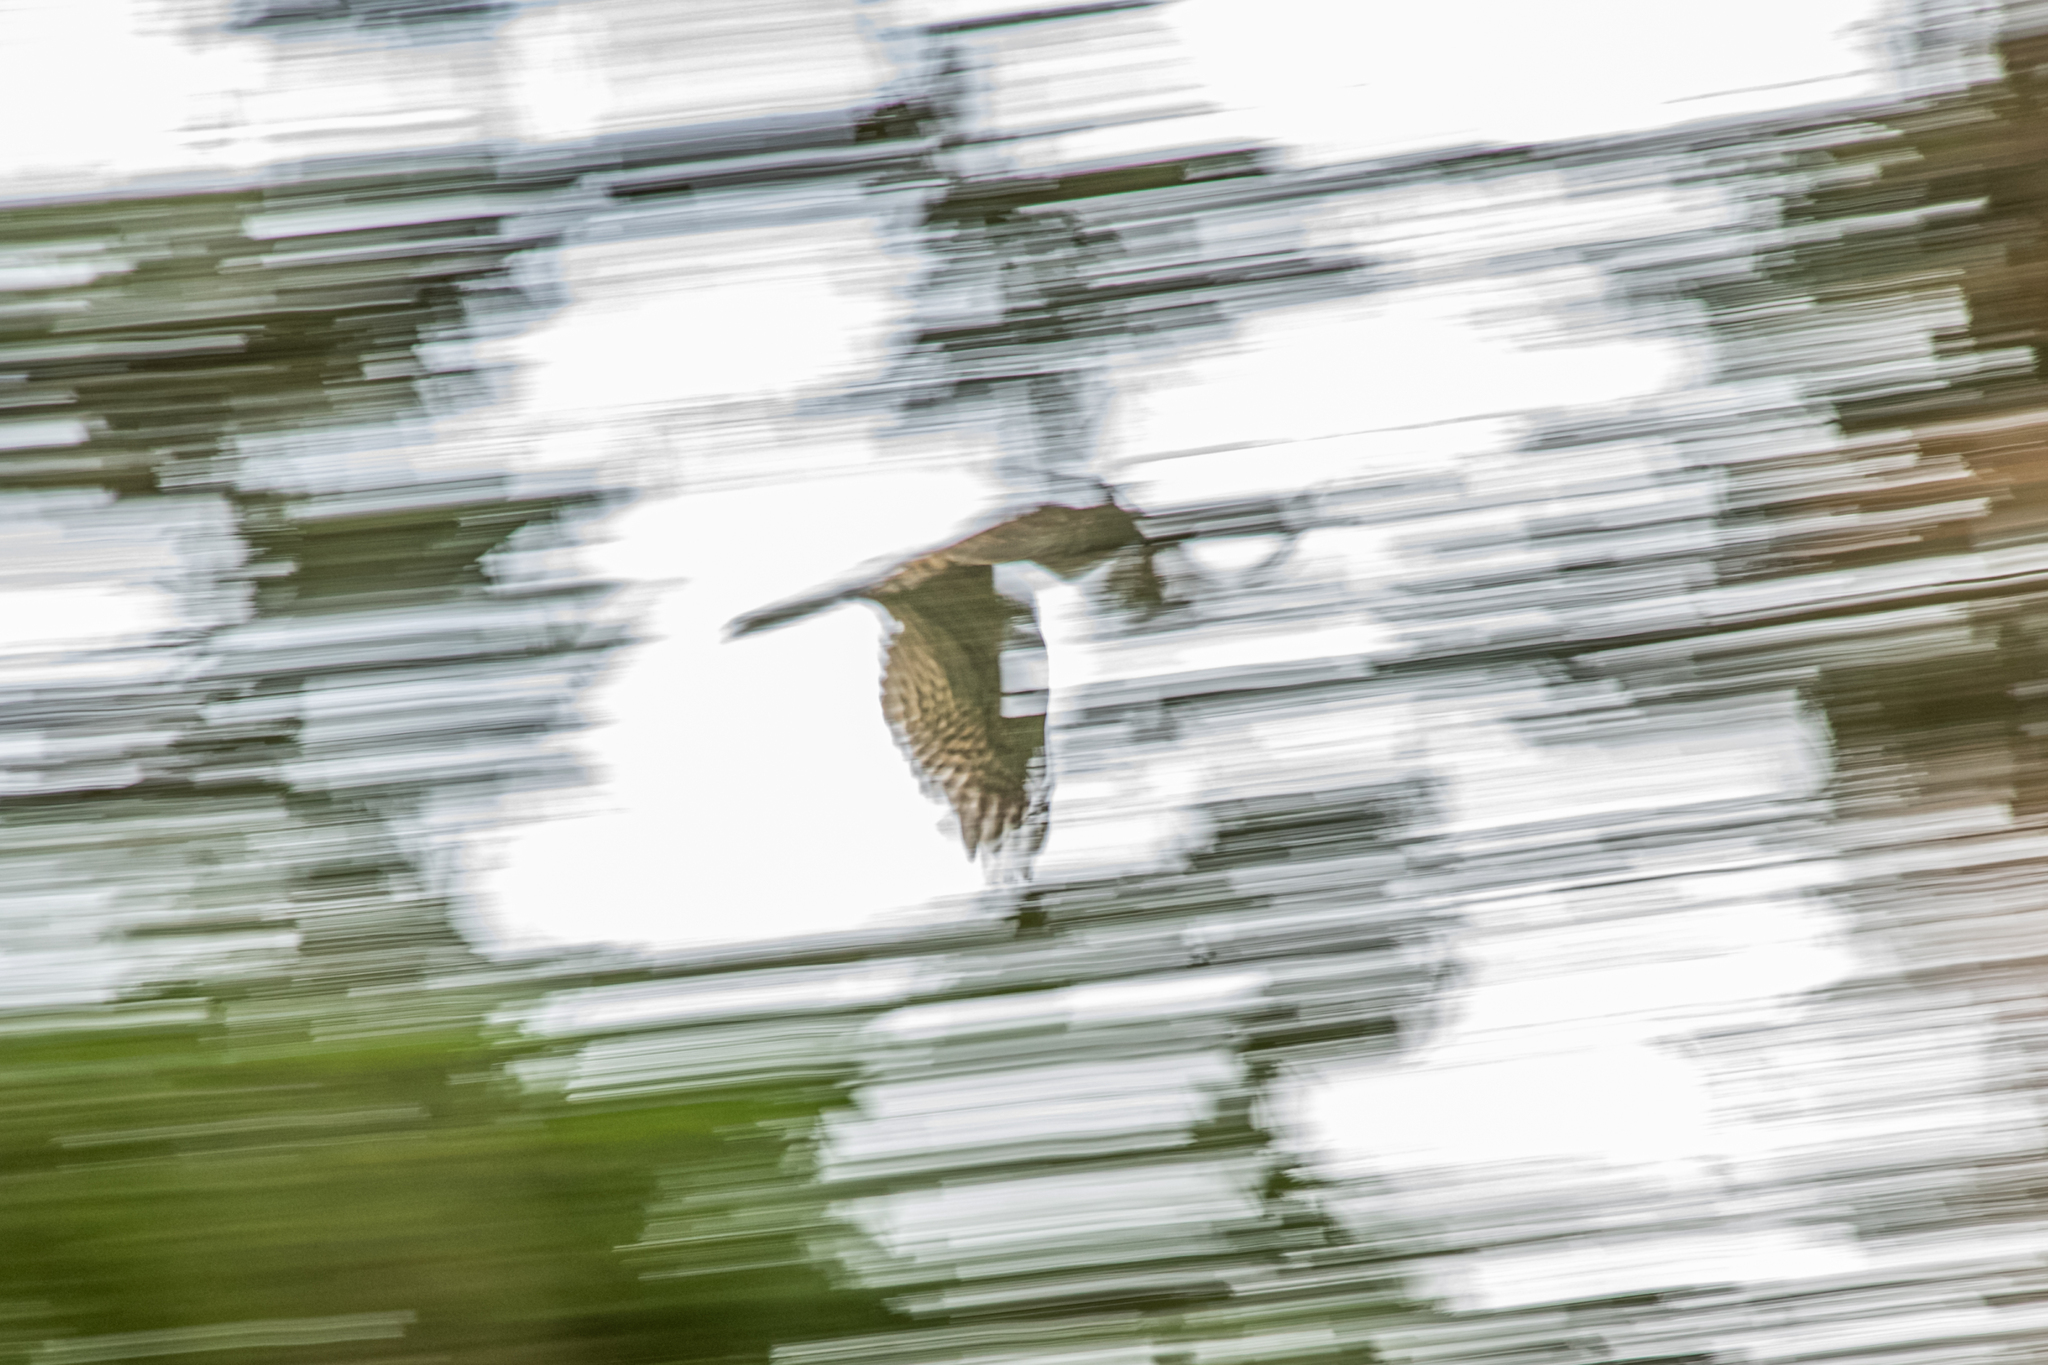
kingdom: Animalia
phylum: Chordata
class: Aves
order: Accipitriformes
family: Accipitridae
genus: Accipiter
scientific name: Accipiter nisus
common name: Eurasian sparrowhawk
